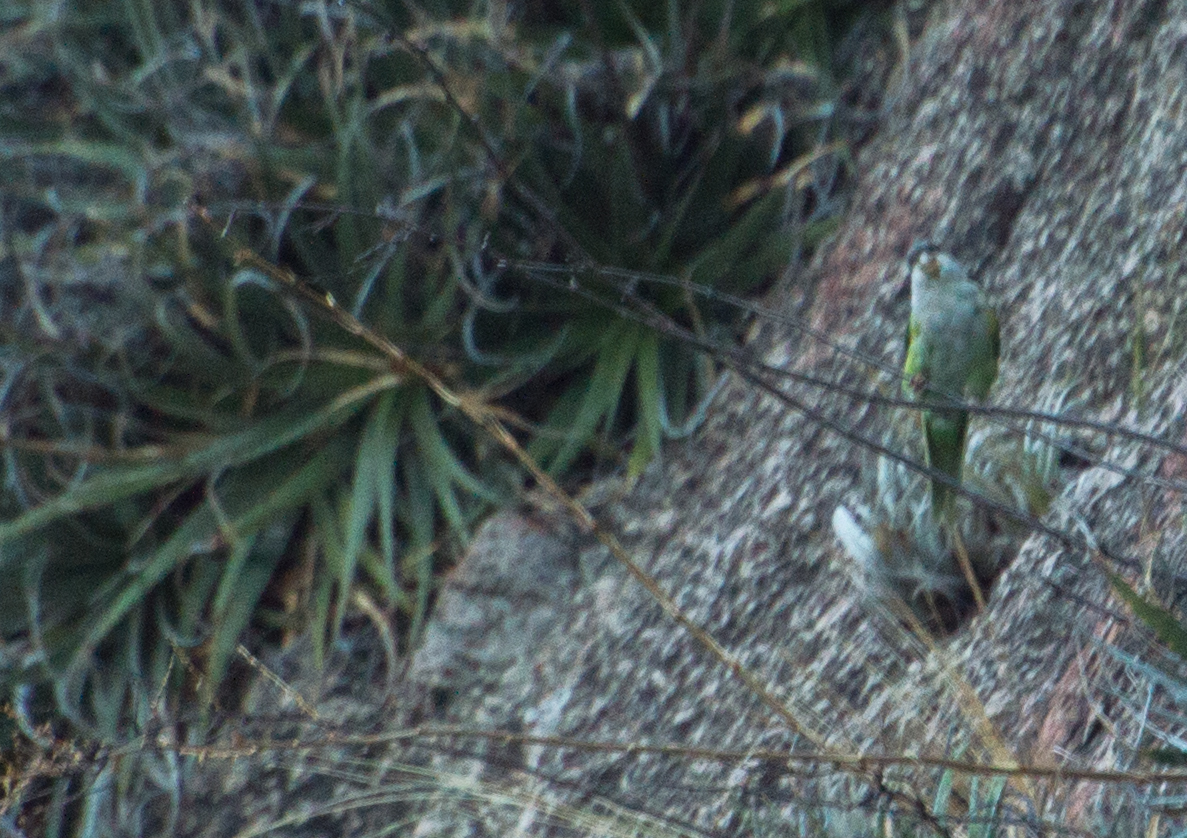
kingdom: Animalia
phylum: Chordata
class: Aves
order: Psittaciformes
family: Psittacidae
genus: Psilopsiagon
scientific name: Psilopsiagon aymara
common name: Grey-hooded parakeet
